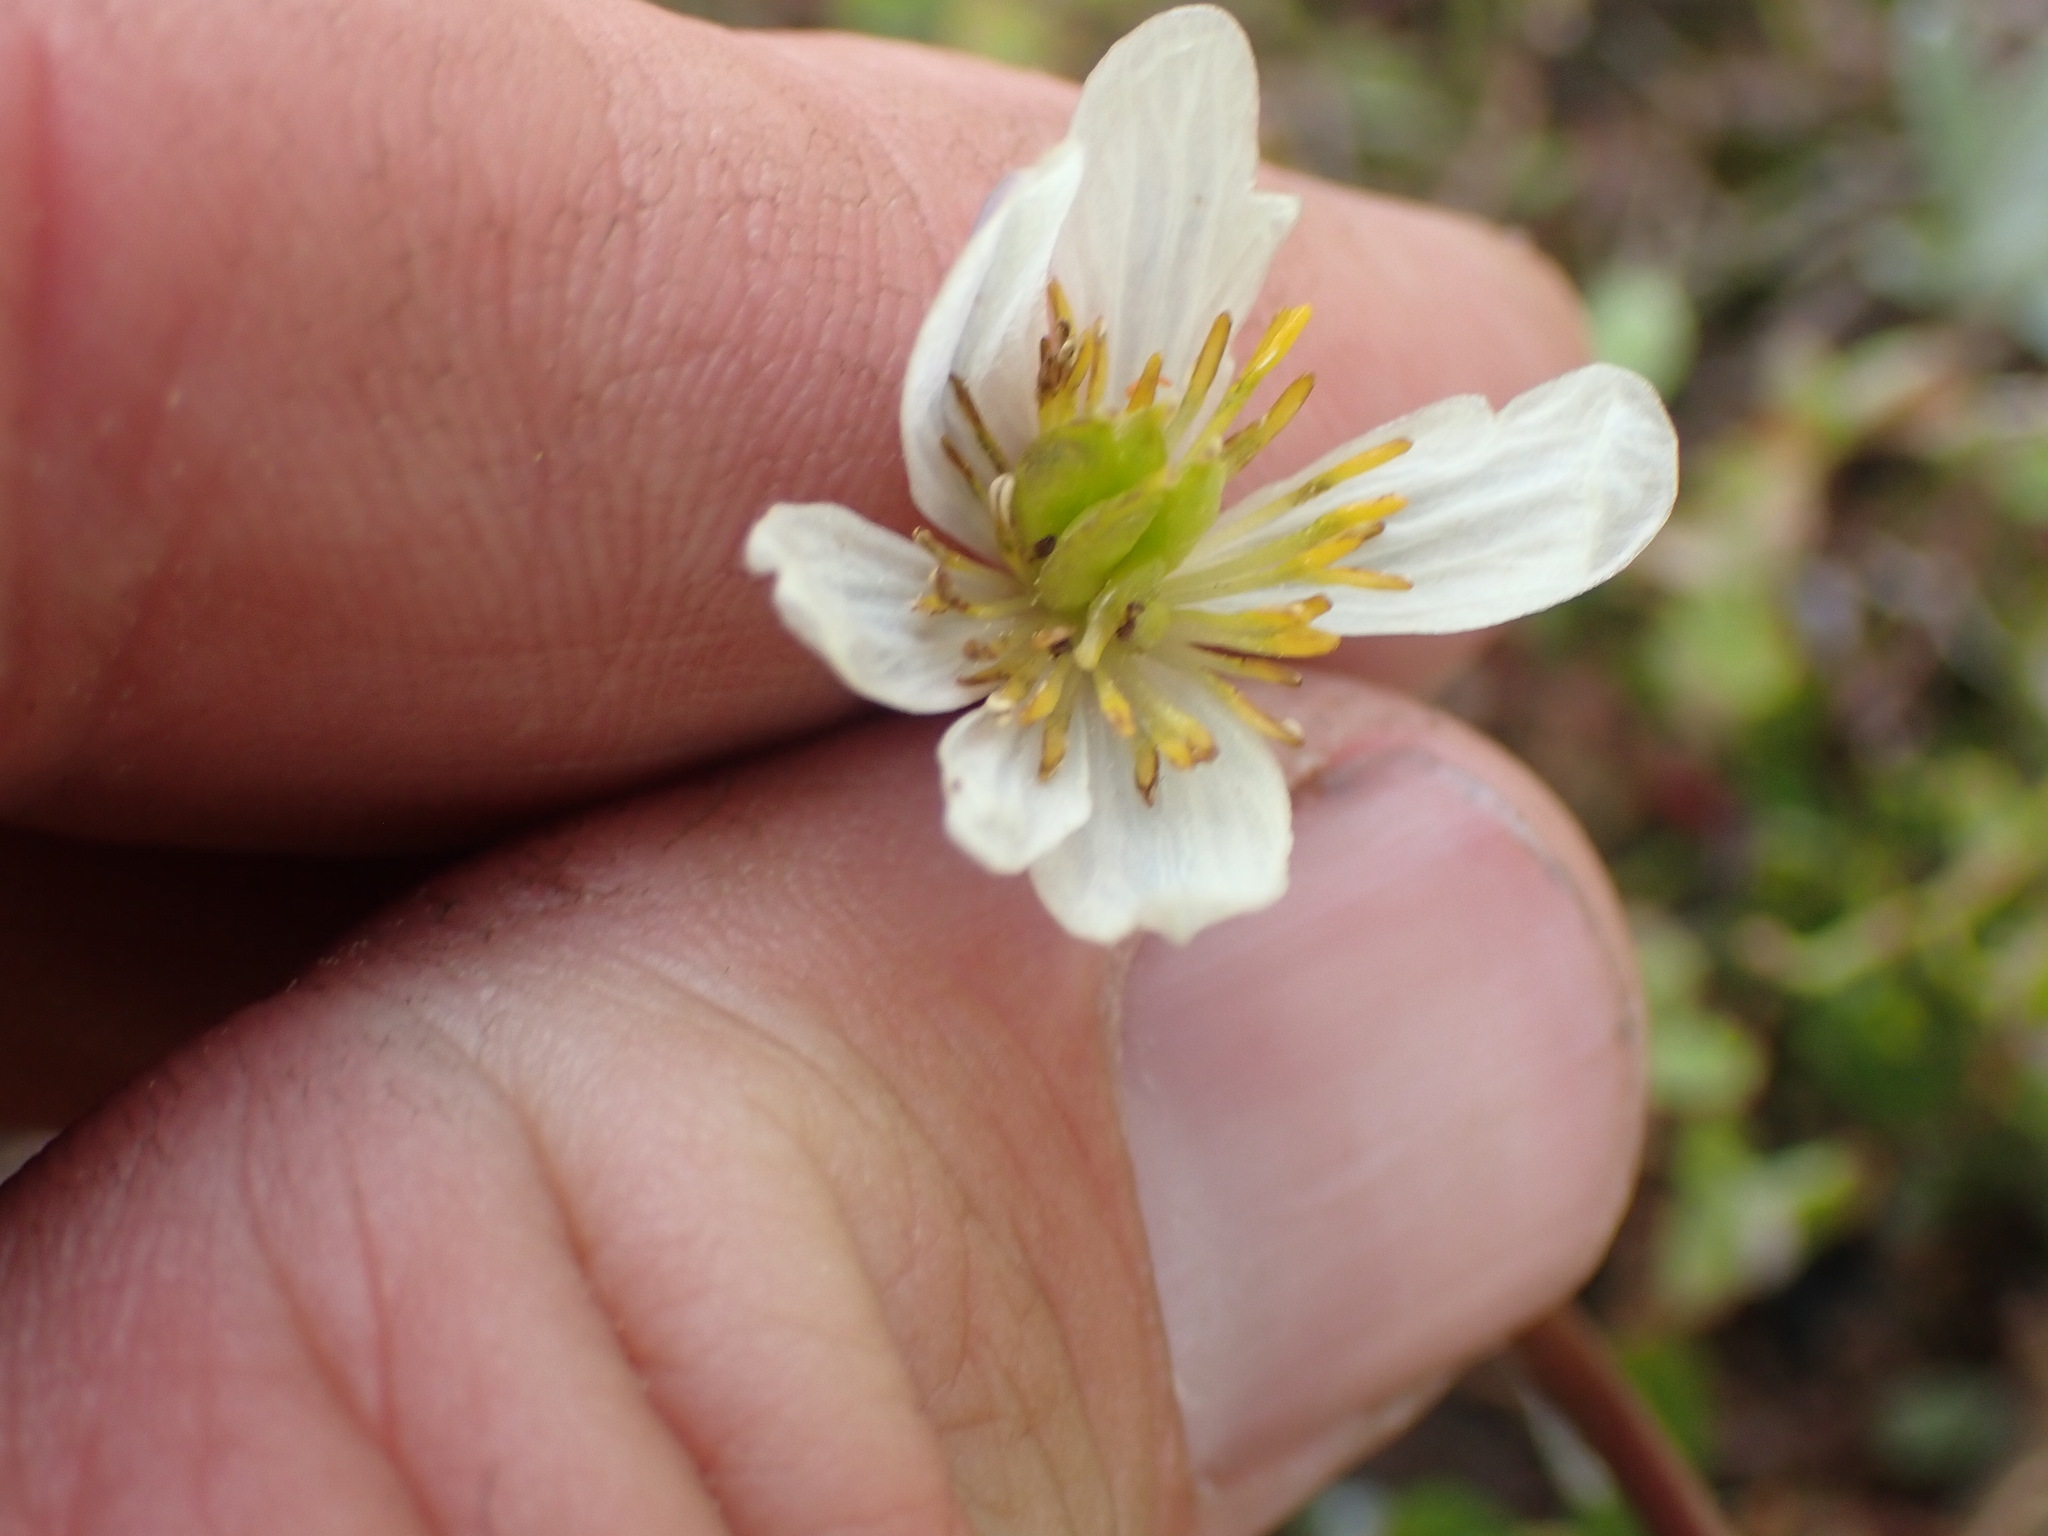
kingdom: Plantae
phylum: Tracheophyta
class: Magnoliopsida
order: Ranunculales
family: Ranunculaceae
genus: Caltha
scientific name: Caltha leptosepala
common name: Elkslip
